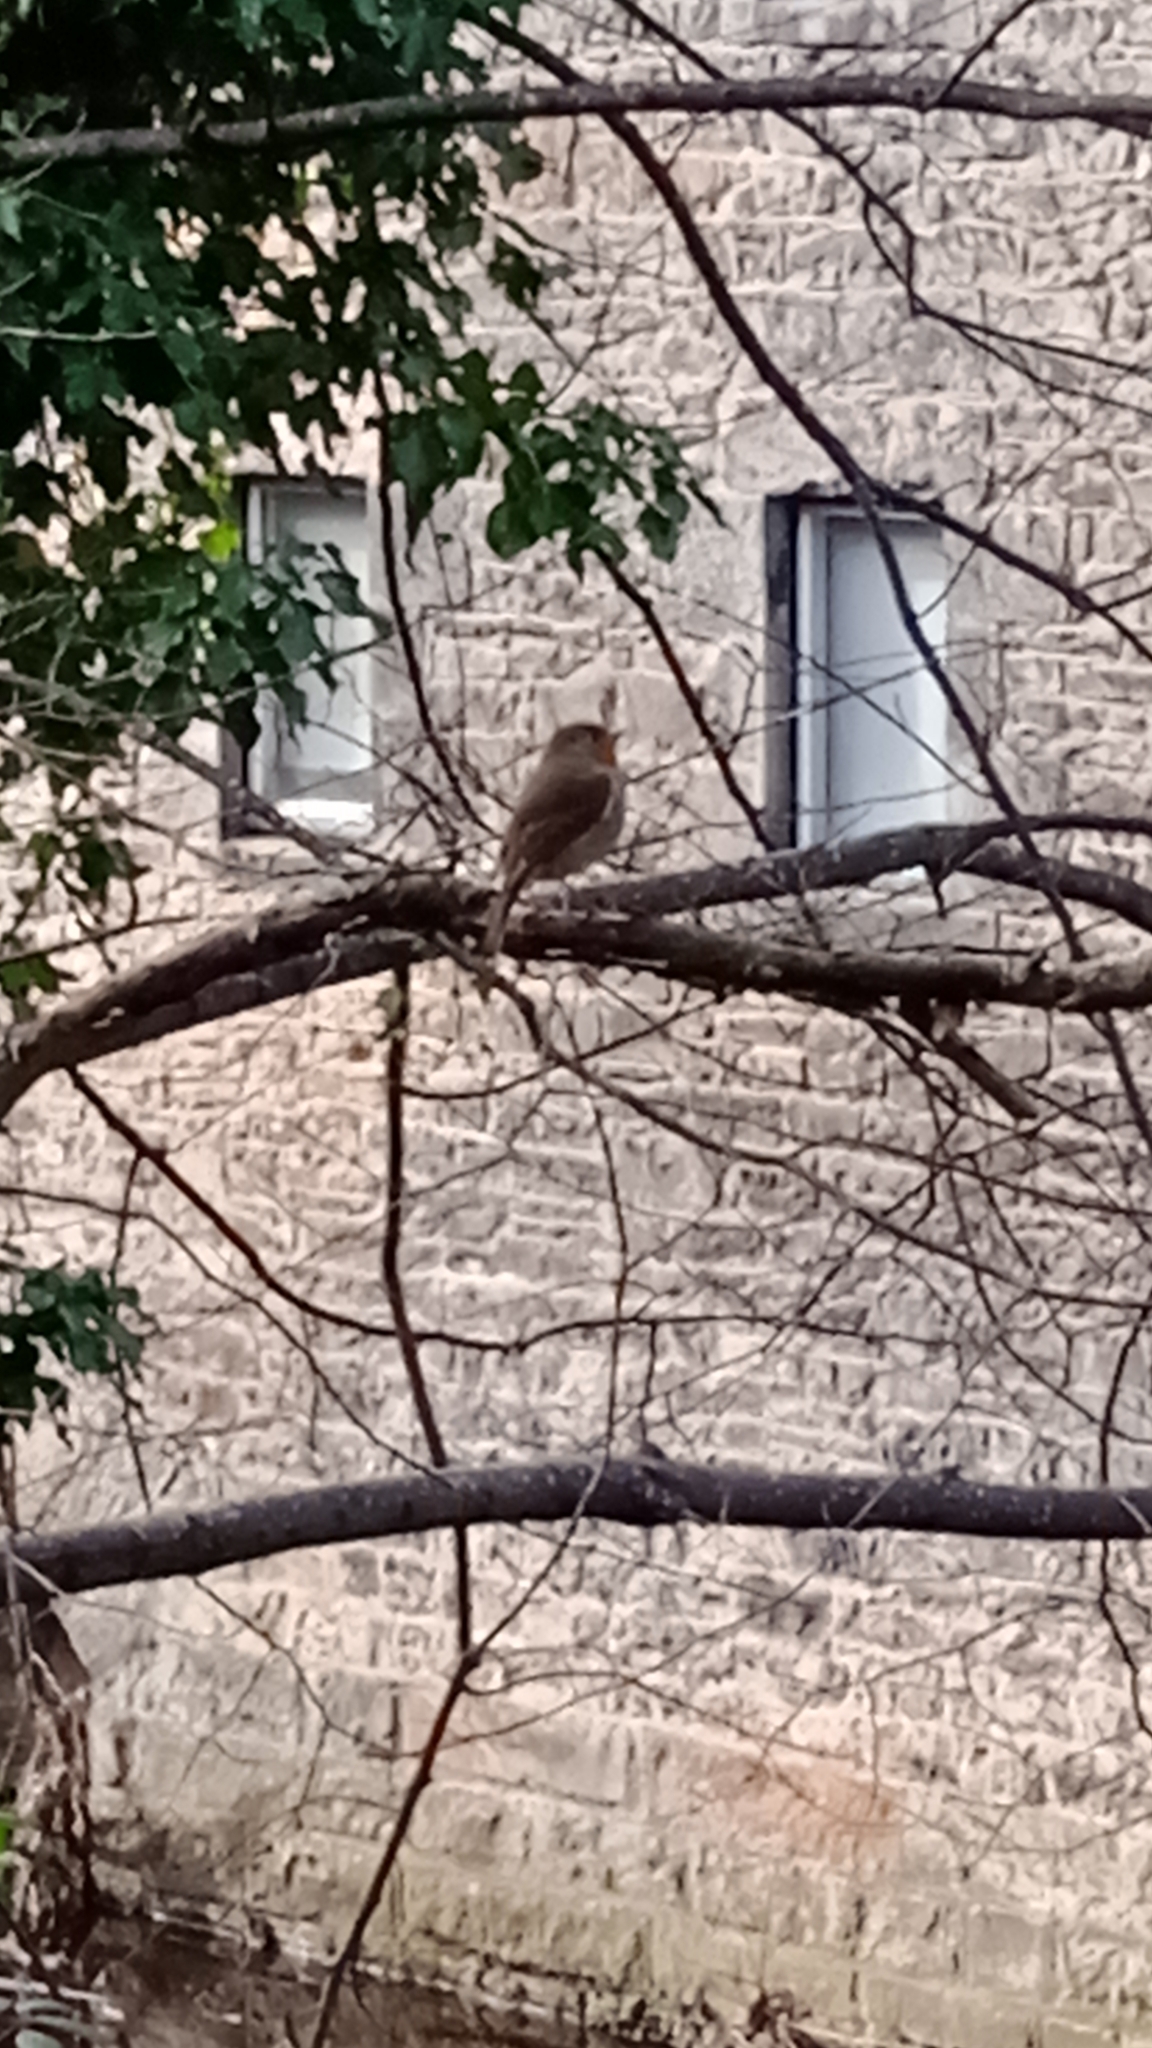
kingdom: Animalia
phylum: Chordata
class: Aves
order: Passeriformes
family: Muscicapidae
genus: Erithacus
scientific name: Erithacus rubecula
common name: European robin
